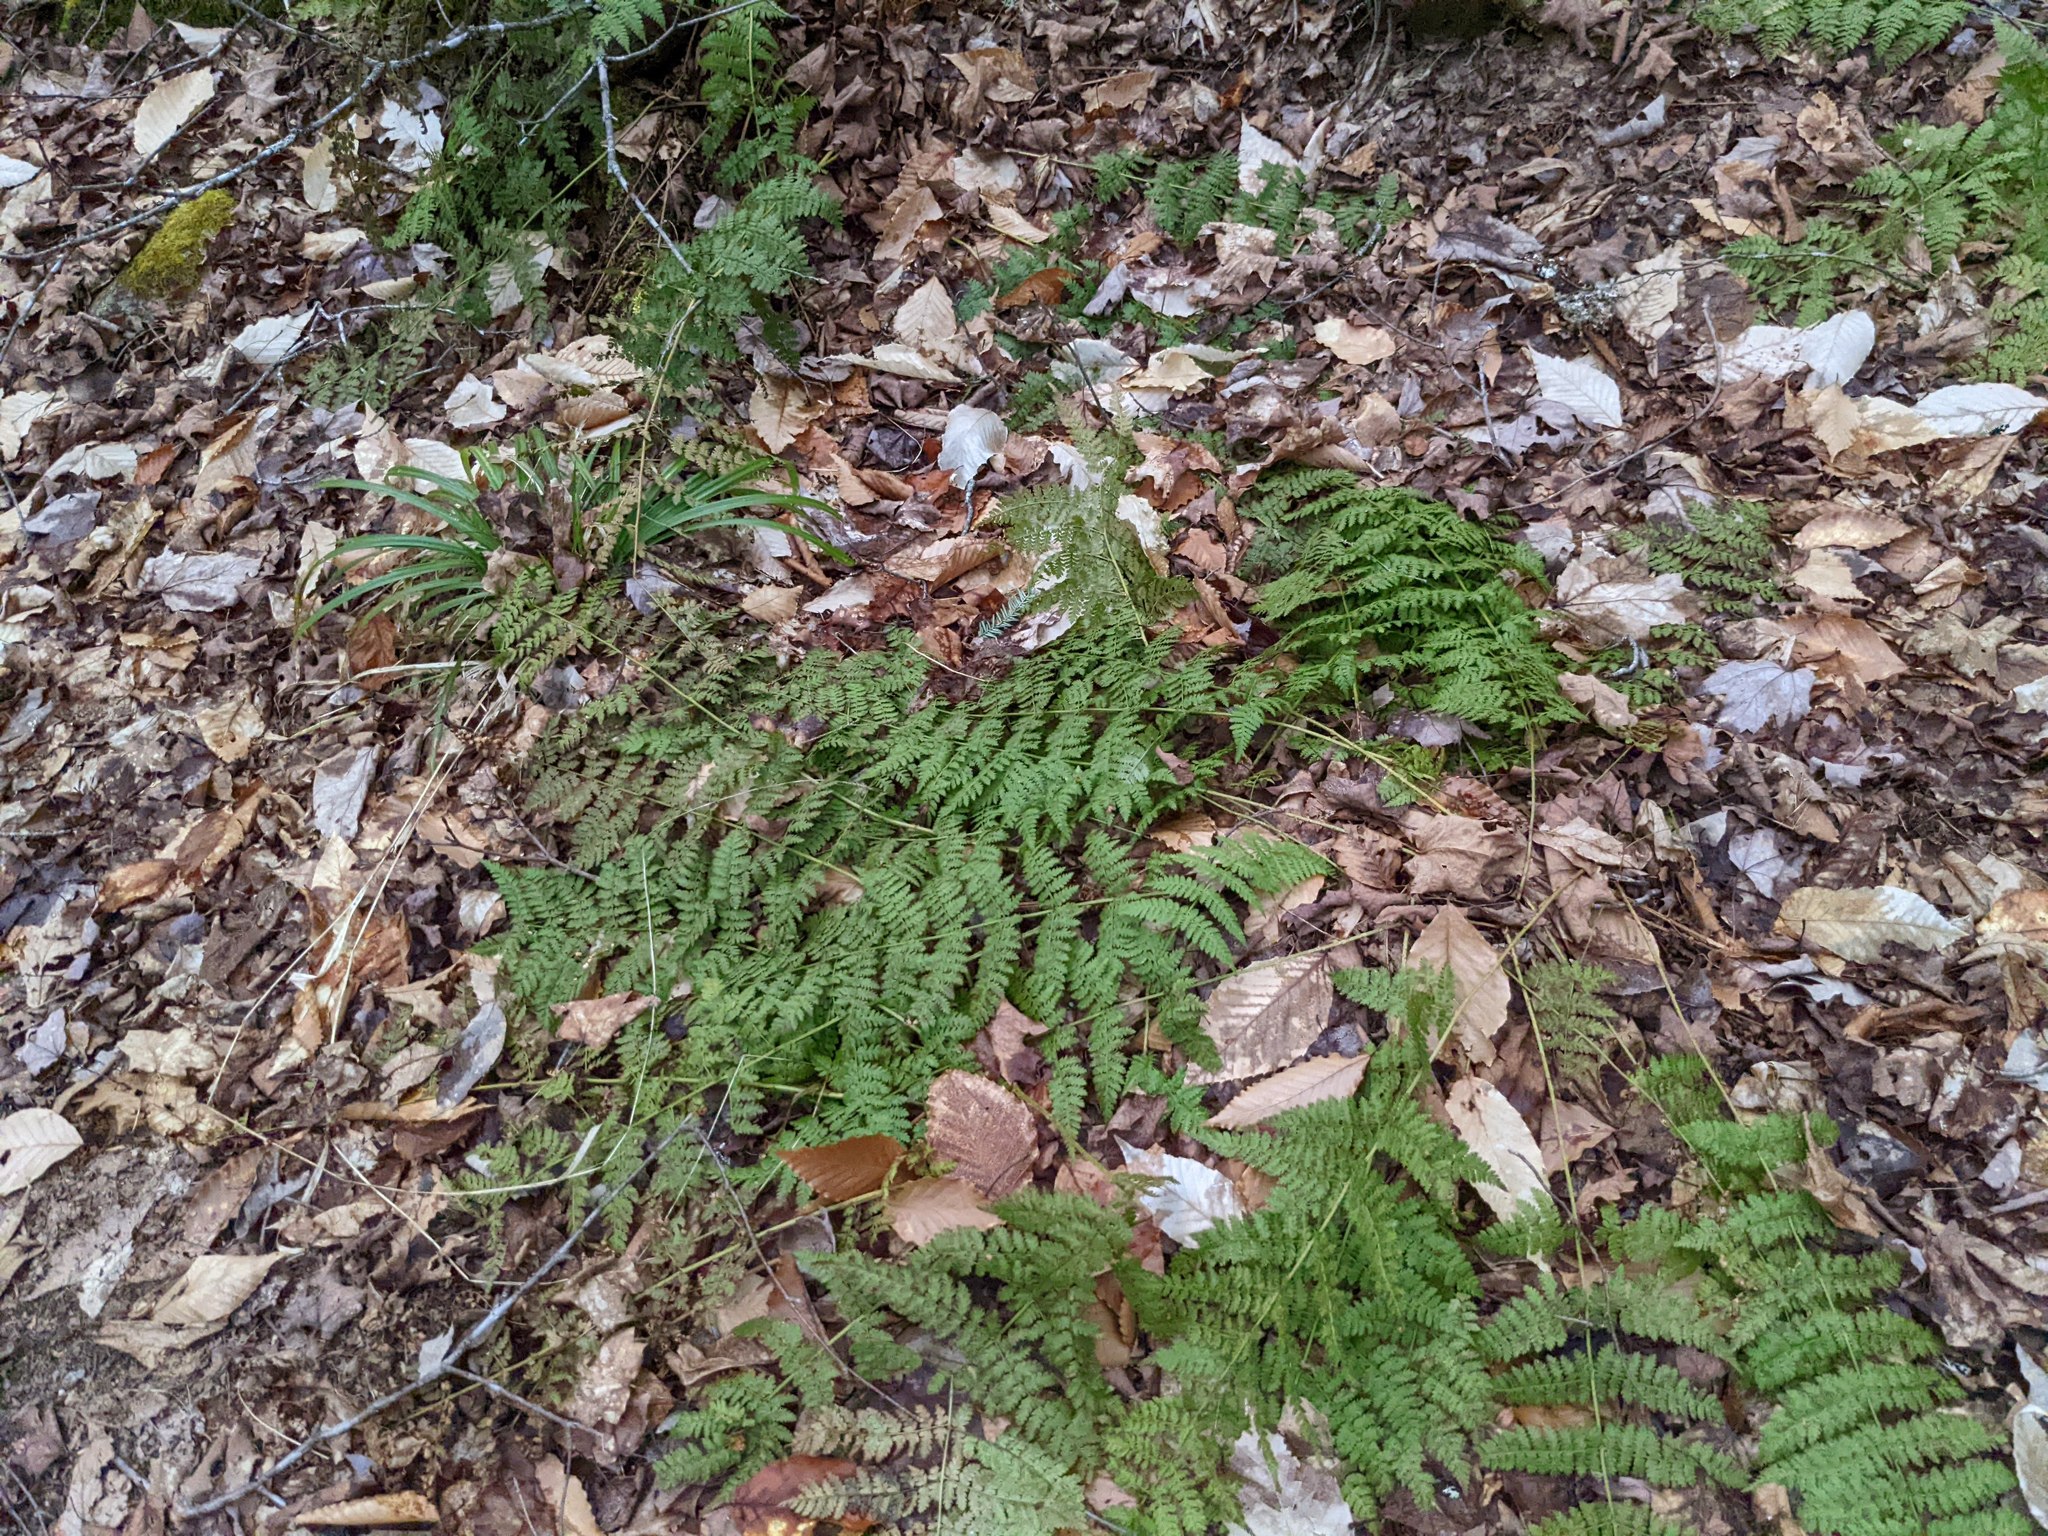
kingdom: Plantae
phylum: Tracheophyta
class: Polypodiopsida
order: Polypodiales
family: Dryopteridaceae
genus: Dryopteris
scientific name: Dryopteris intermedia
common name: Evergreen wood fern
